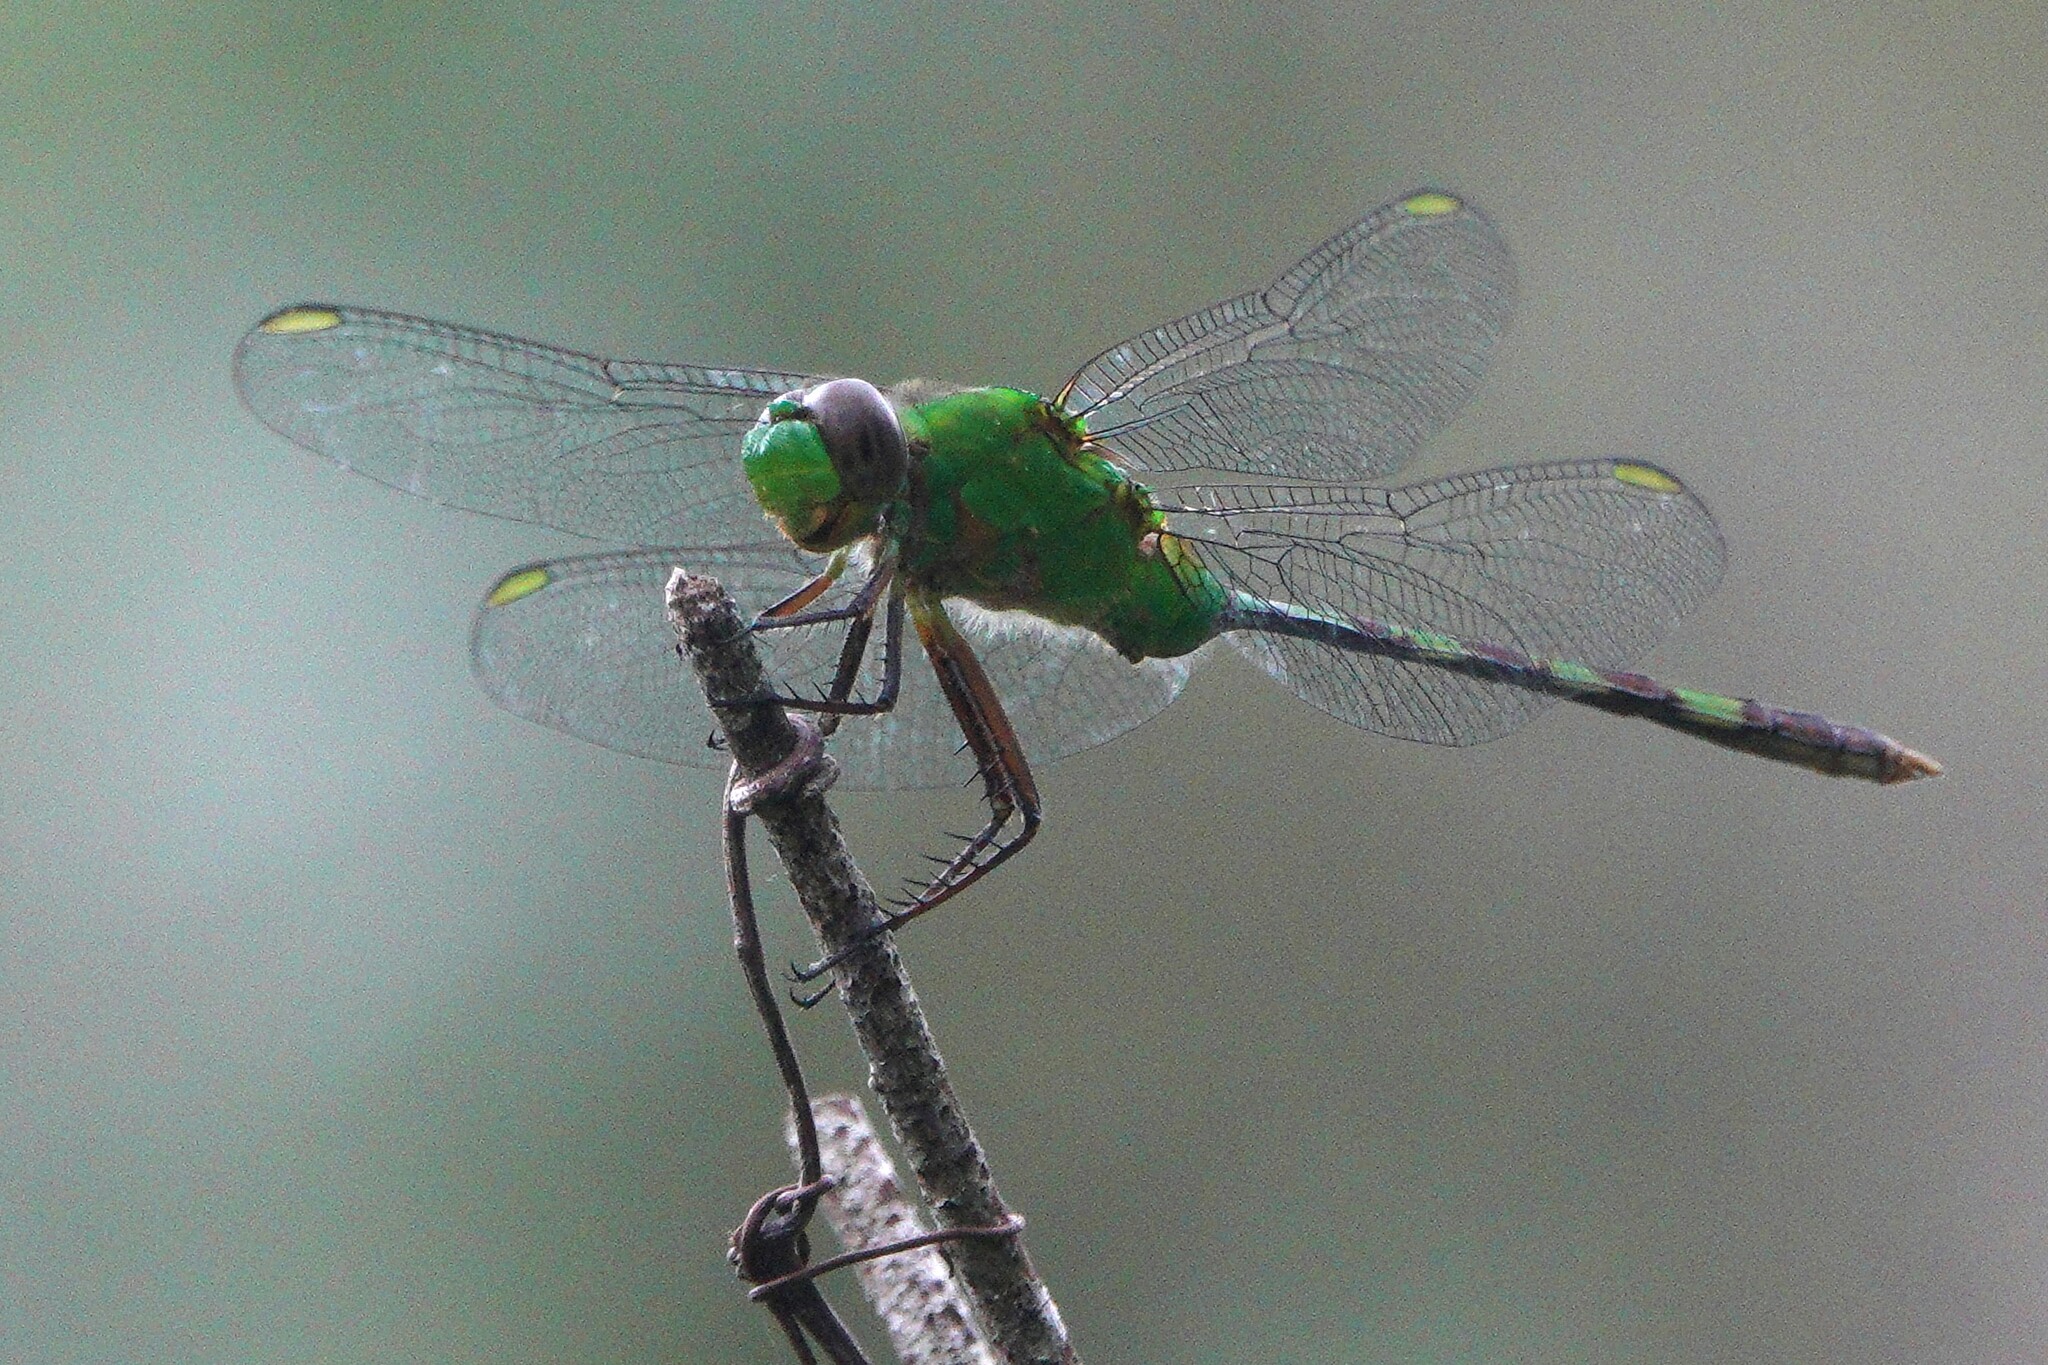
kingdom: Animalia
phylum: Arthropoda
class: Insecta
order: Odonata
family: Libellulidae
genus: Erythemis
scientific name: Erythemis vesiculosa
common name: Great pondhawk
